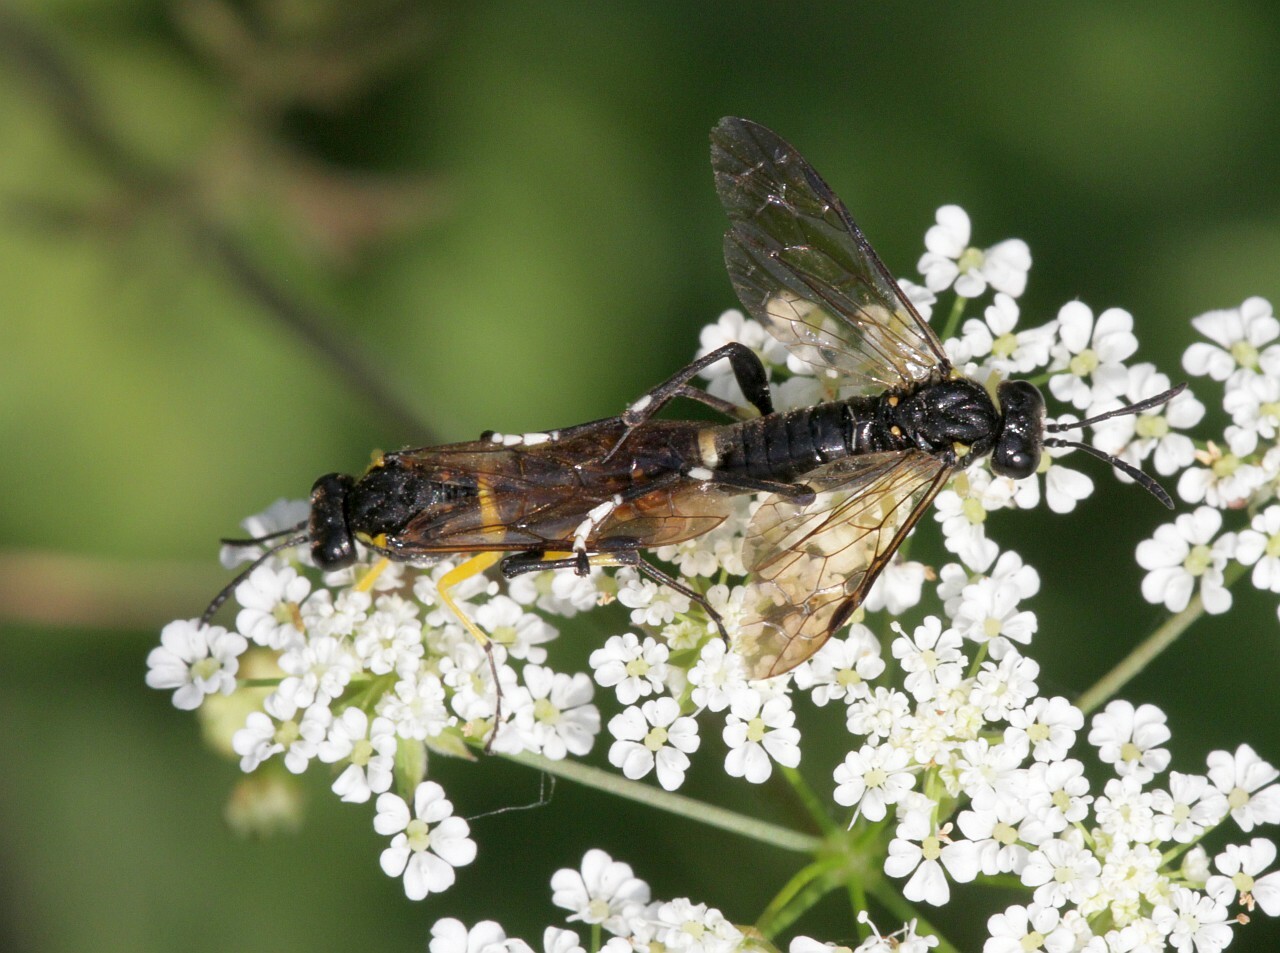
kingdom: Animalia
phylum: Arthropoda
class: Insecta
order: Hymenoptera
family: Tenthredinidae
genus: Macrophya
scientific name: Macrophya montana
